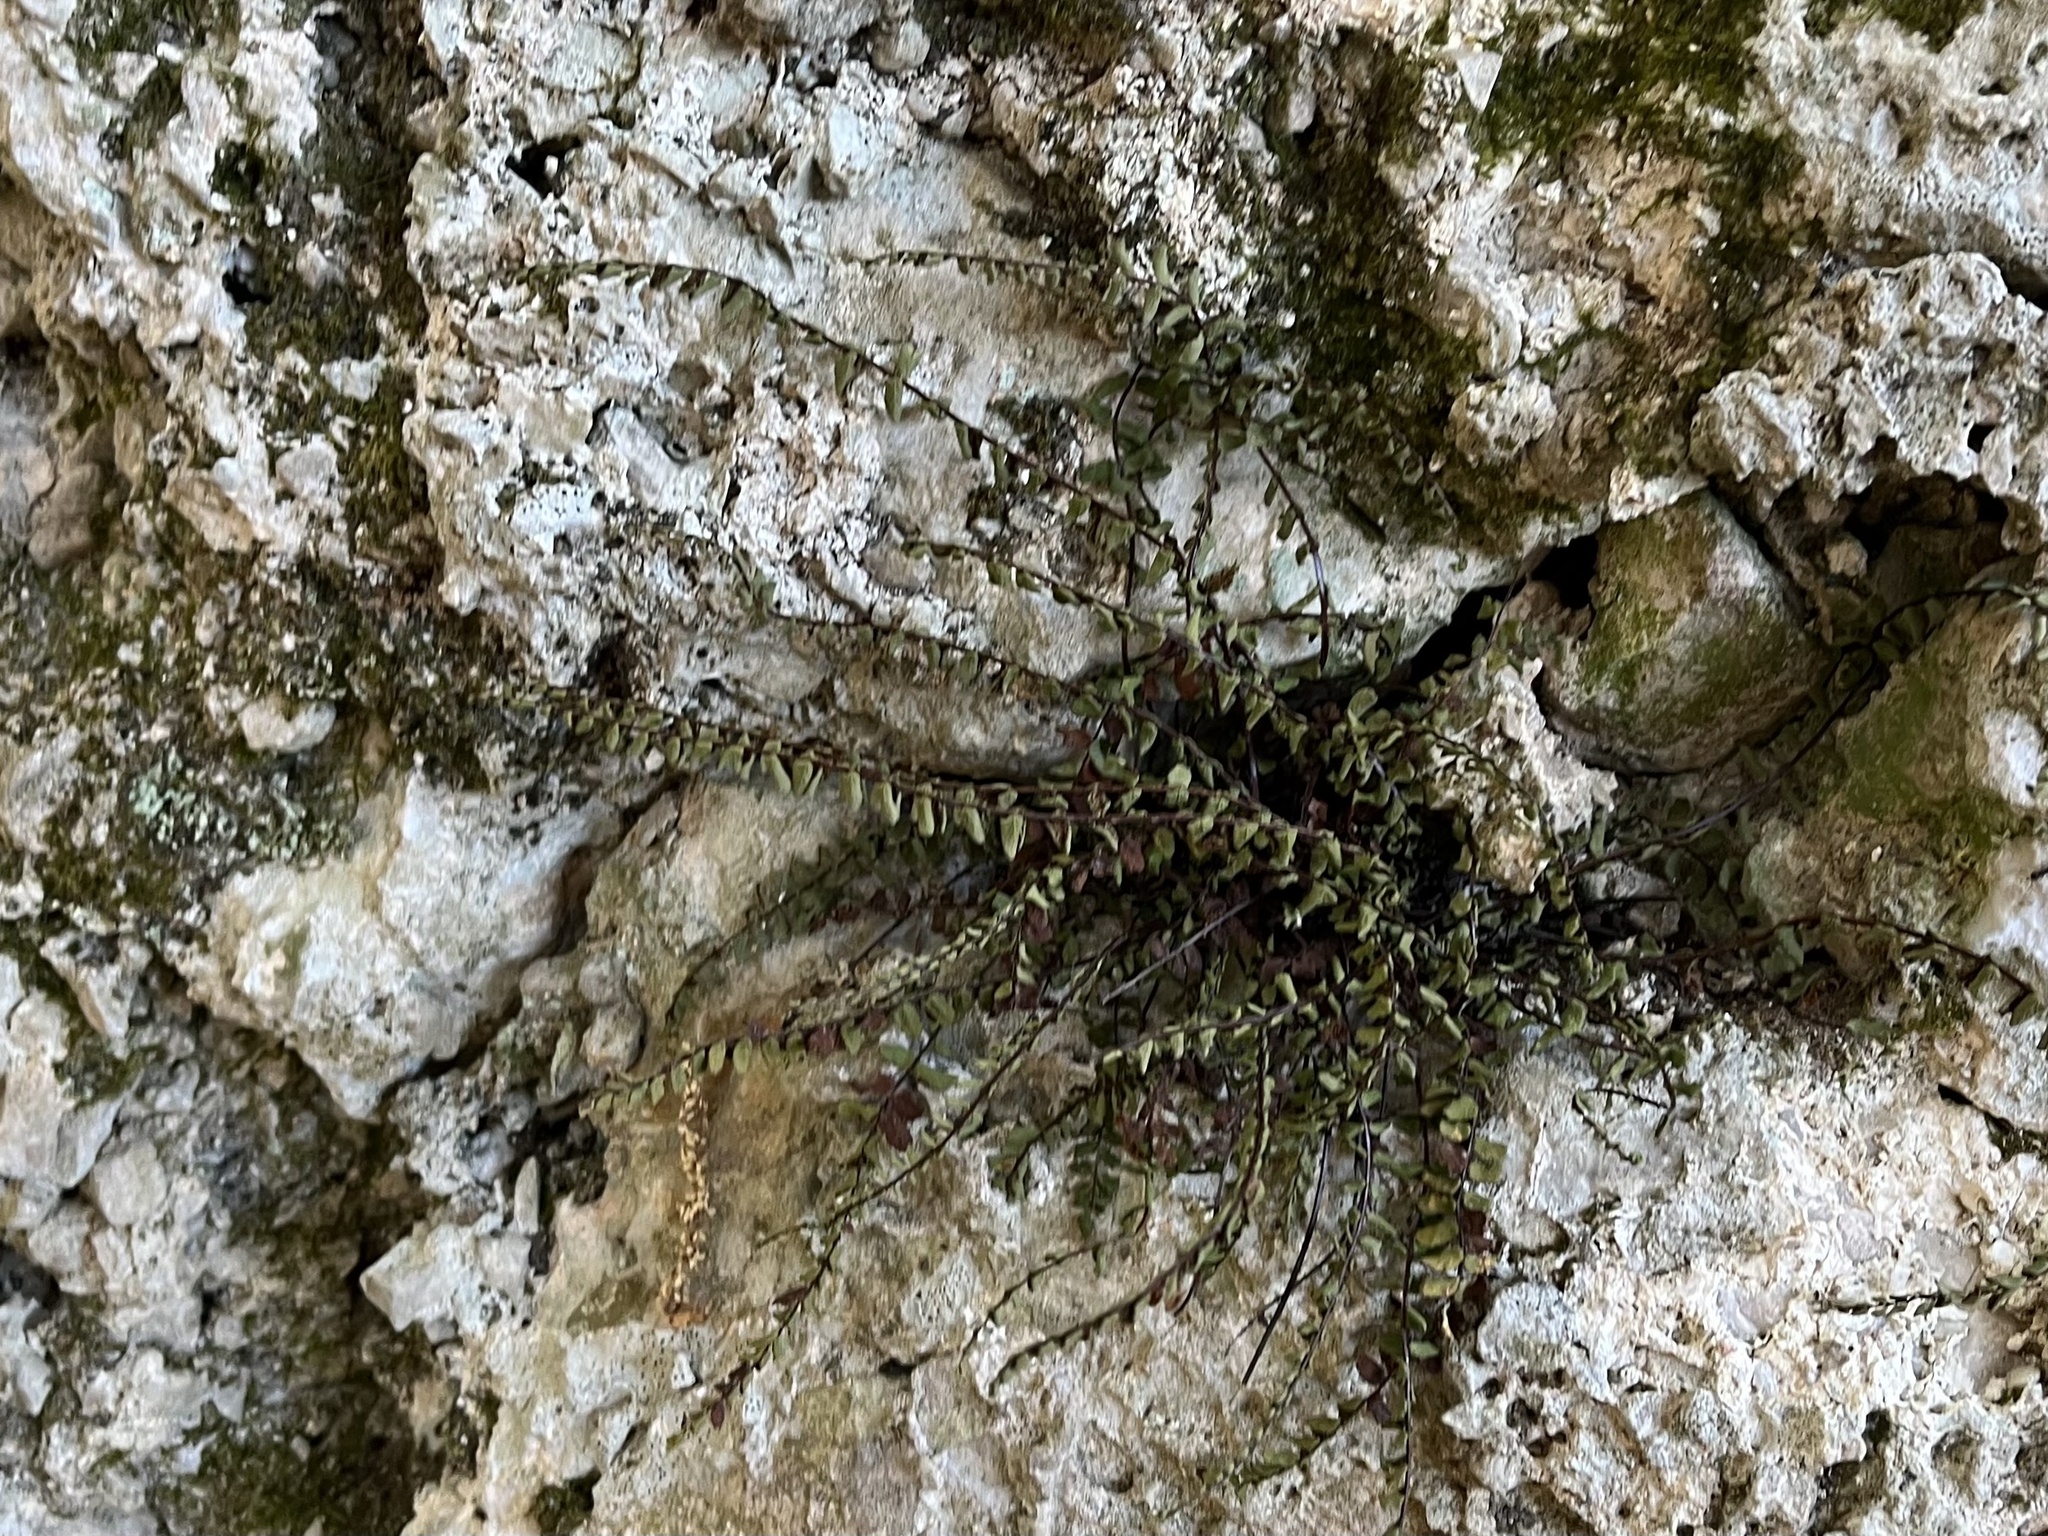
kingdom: Plantae
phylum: Tracheophyta
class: Polypodiopsida
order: Polypodiales
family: Aspleniaceae
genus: Asplenium
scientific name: Asplenium trichomanes
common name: Maidenhair spleenwort
